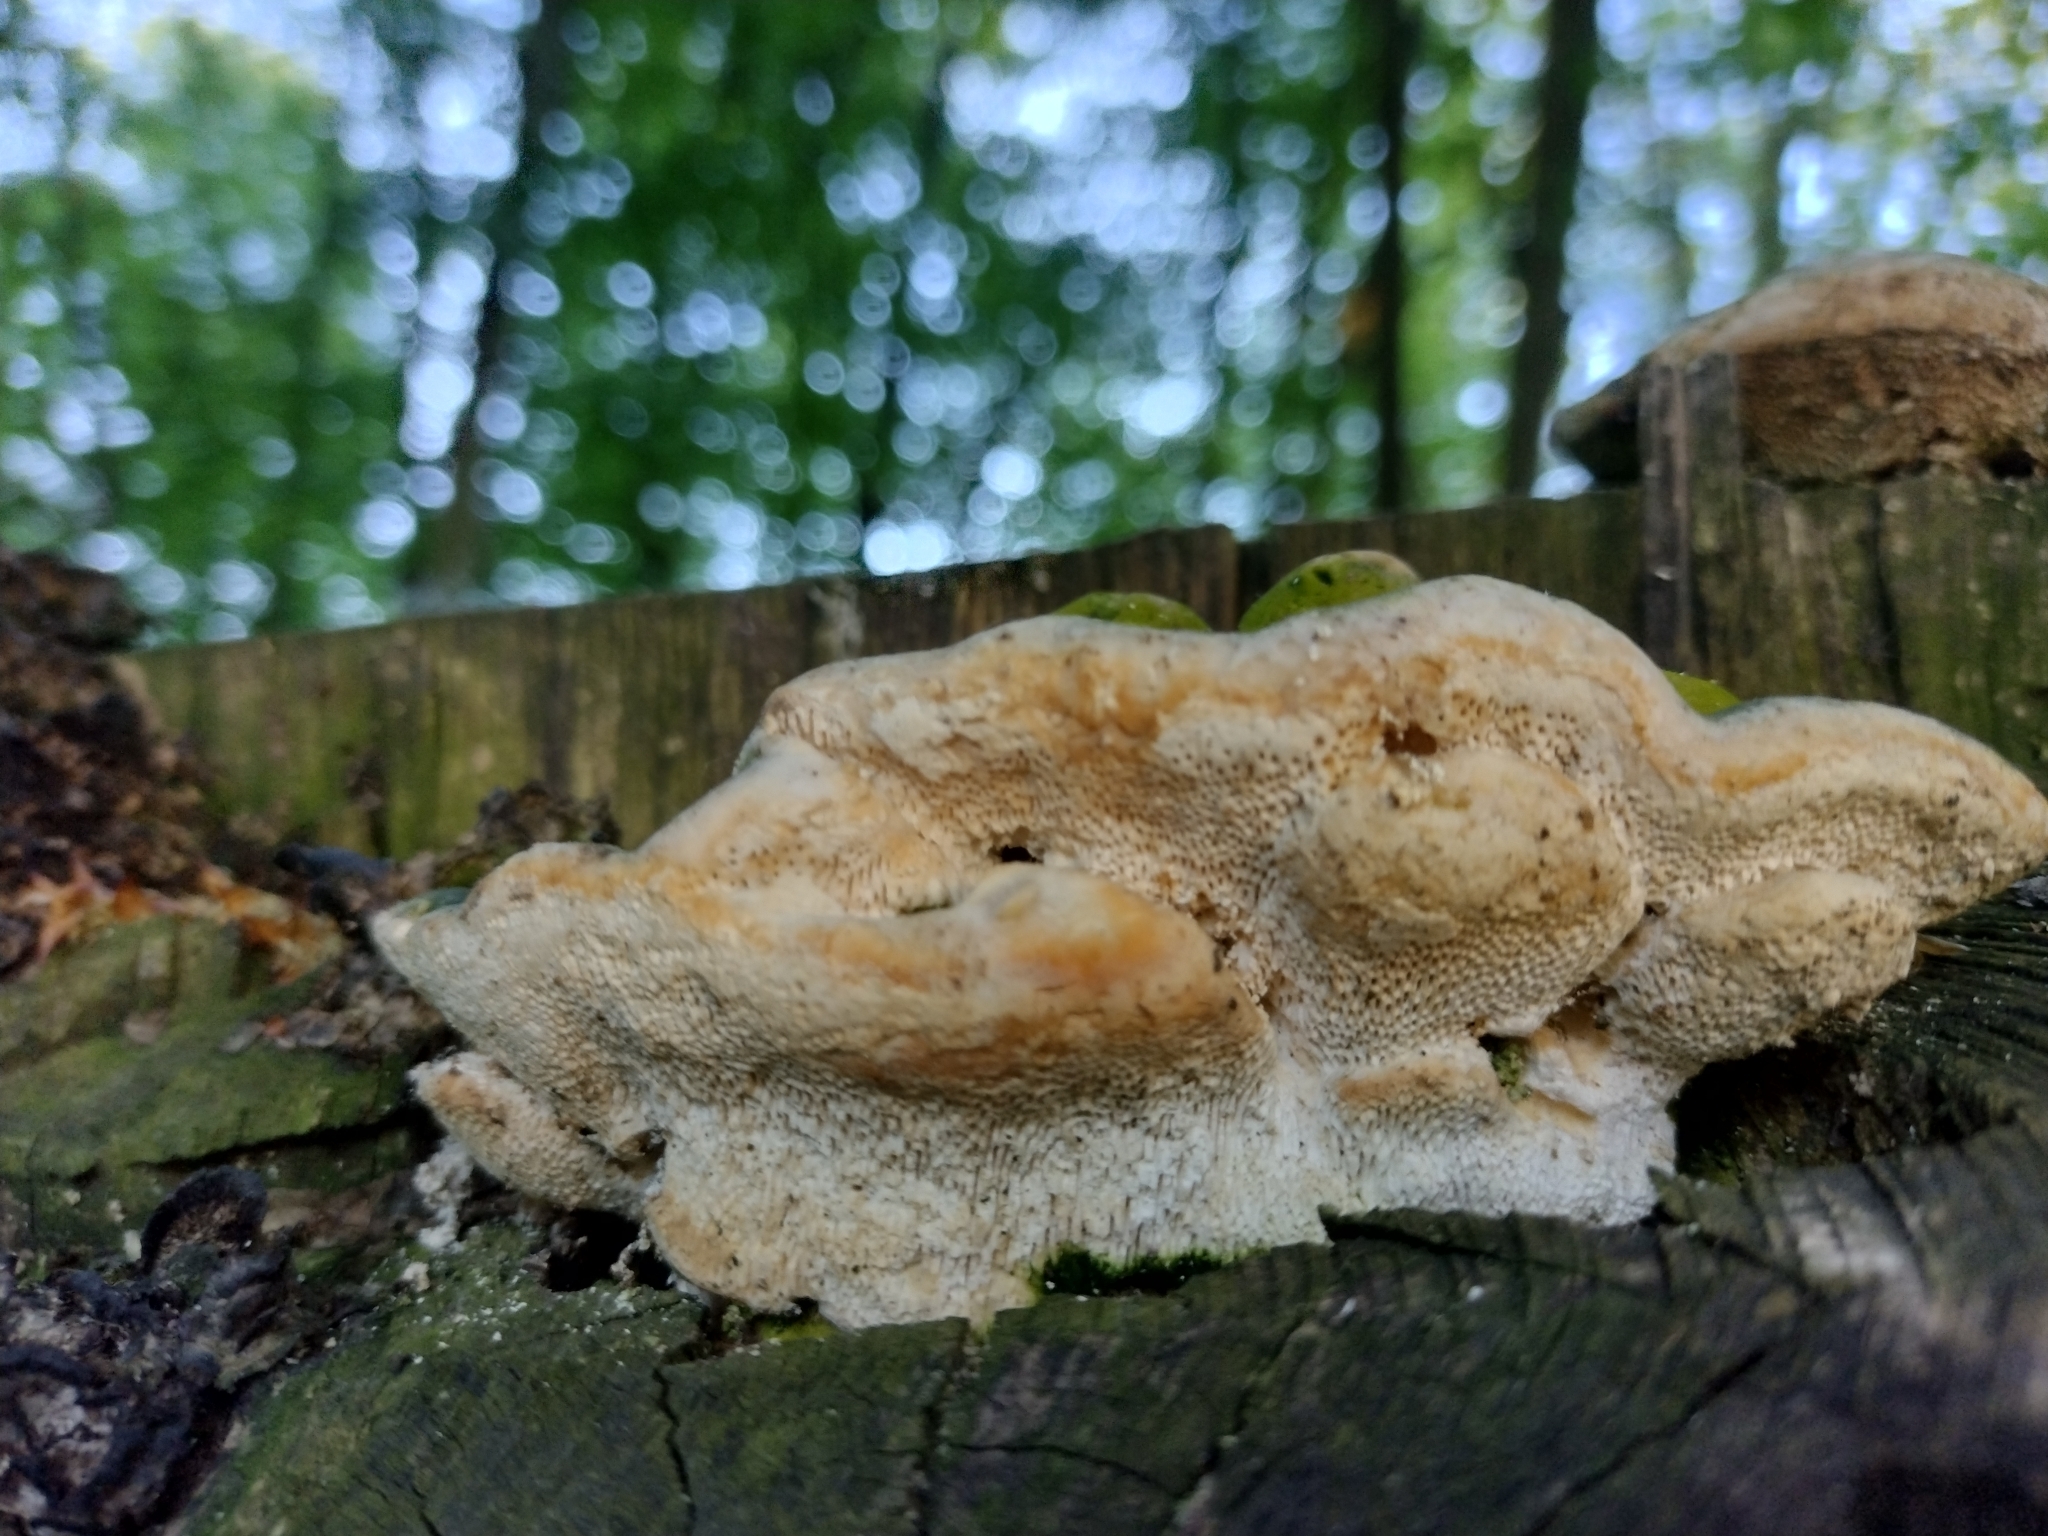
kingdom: Fungi
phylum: Basidiomycota
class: Agaricomycetes
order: Polyporales
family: Polyporaceae
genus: Trametes
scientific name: Trametes gibbosa
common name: Lumpy bracket
